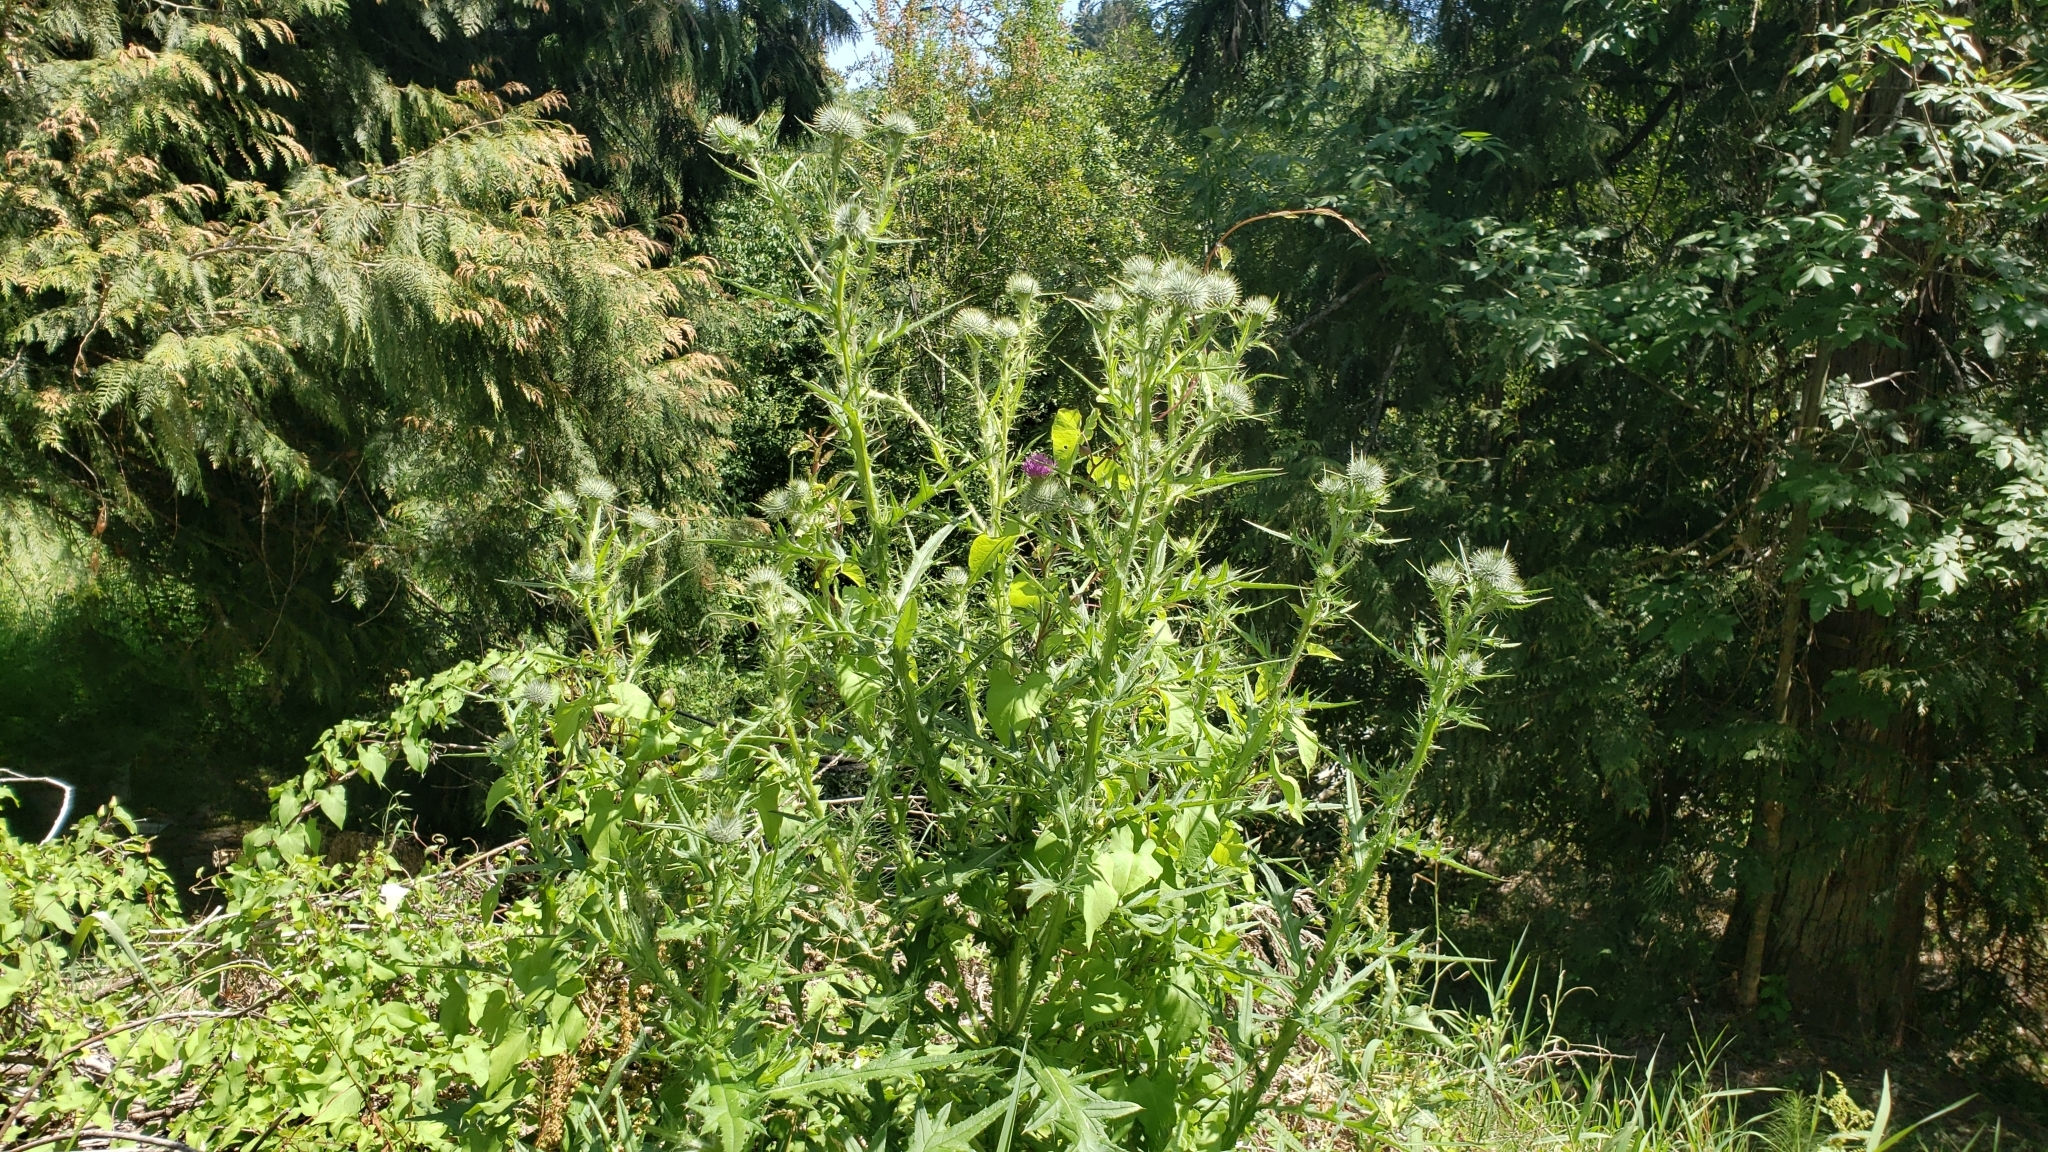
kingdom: Plantae
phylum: Tracheophyta
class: Magnoliopsida
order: Asterales
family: Asteraceae
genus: Cirsium
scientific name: Cirsium vulgare
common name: Bull thistle
